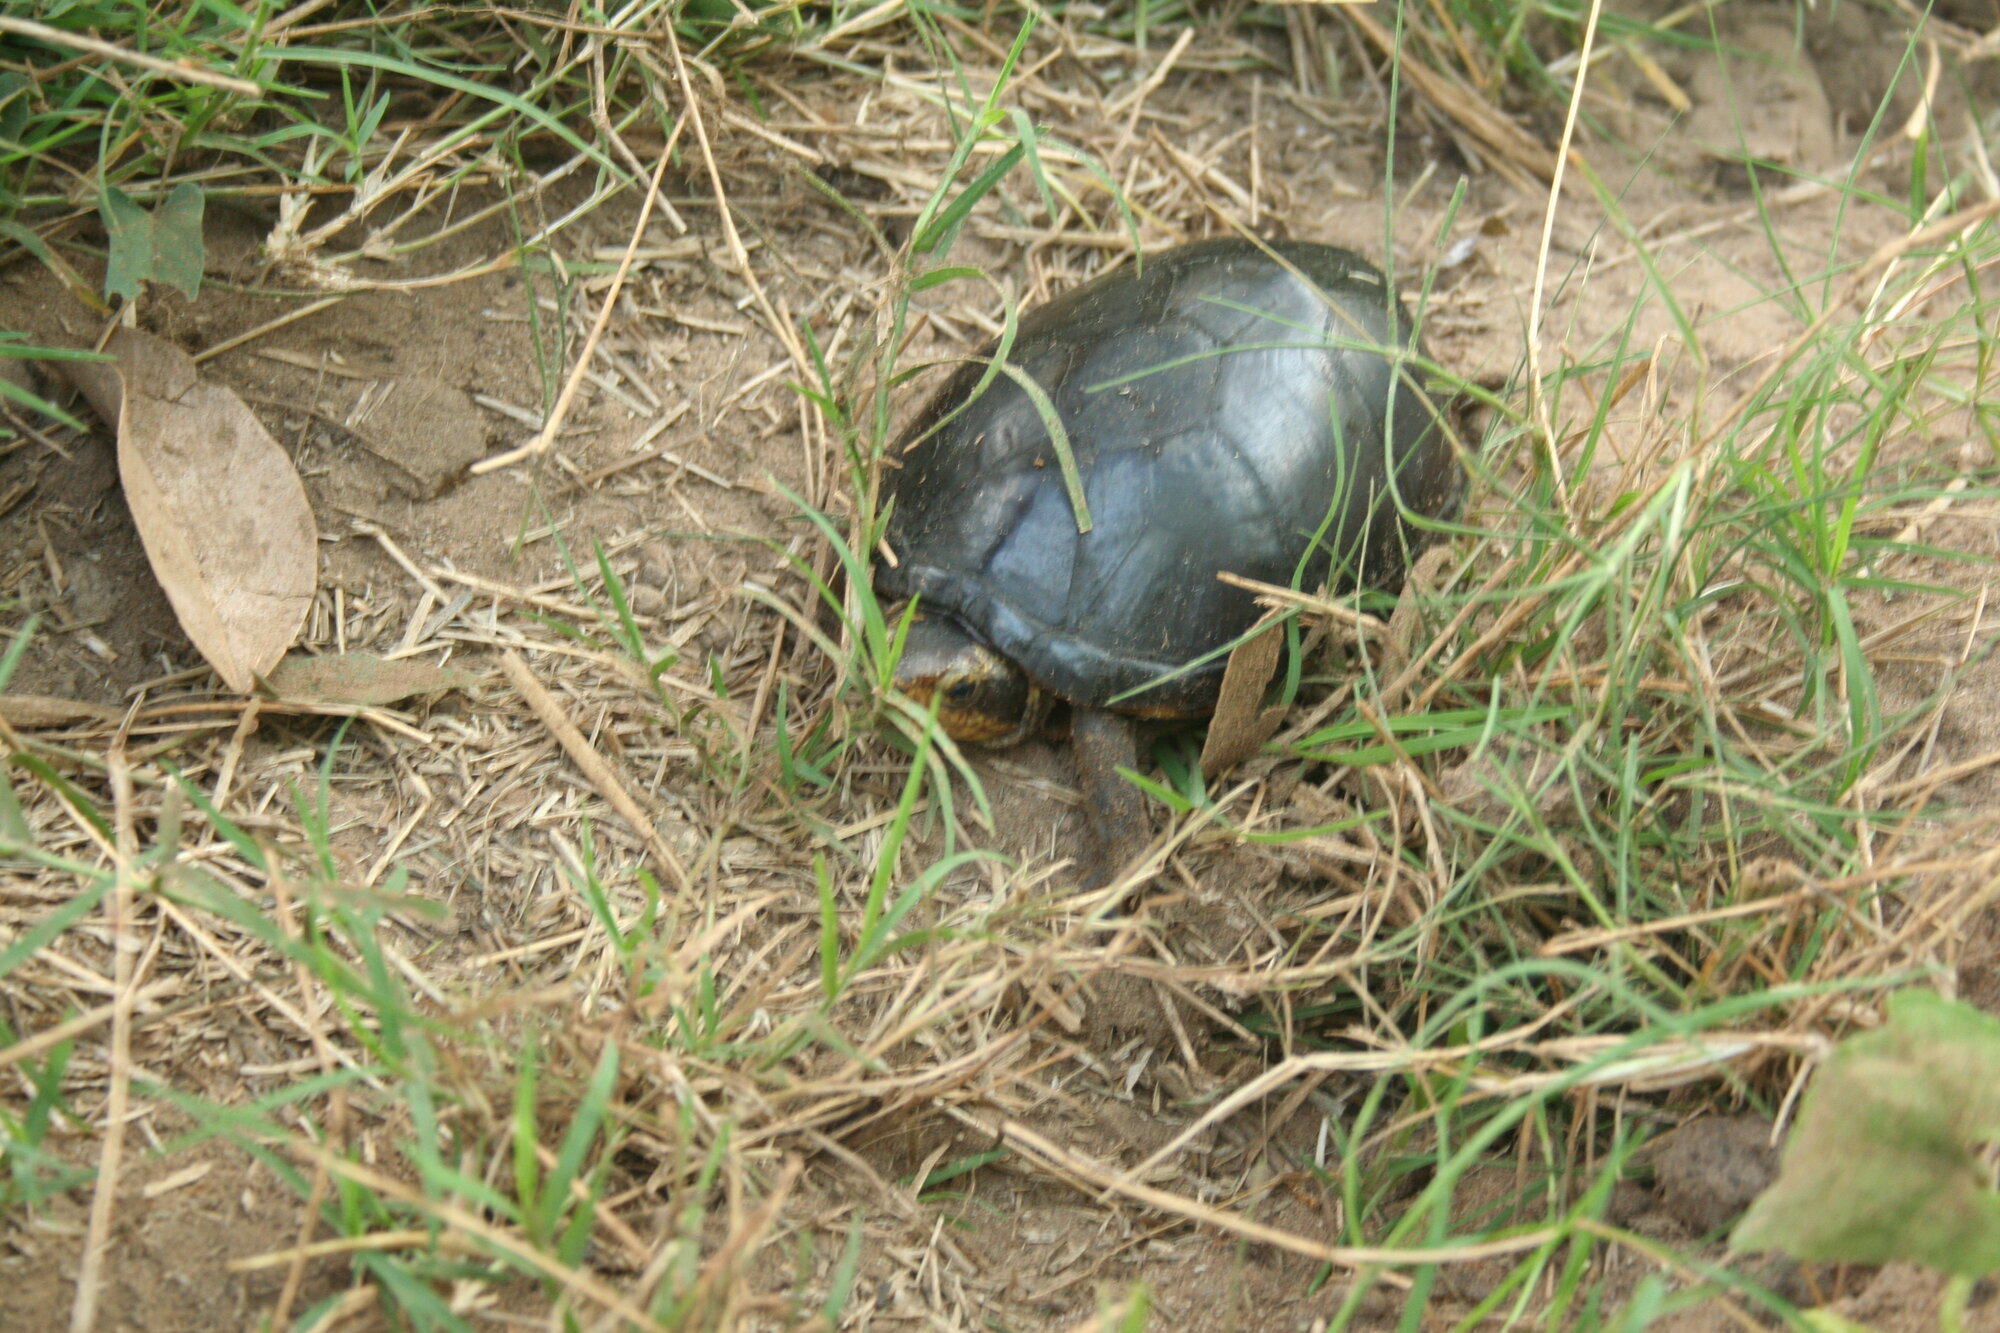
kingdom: Animalia
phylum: Chordata
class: Testudines
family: Kinosternidae
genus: Kinosternon
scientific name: Kinosternon leucostomum
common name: White-lipped mud turtle
